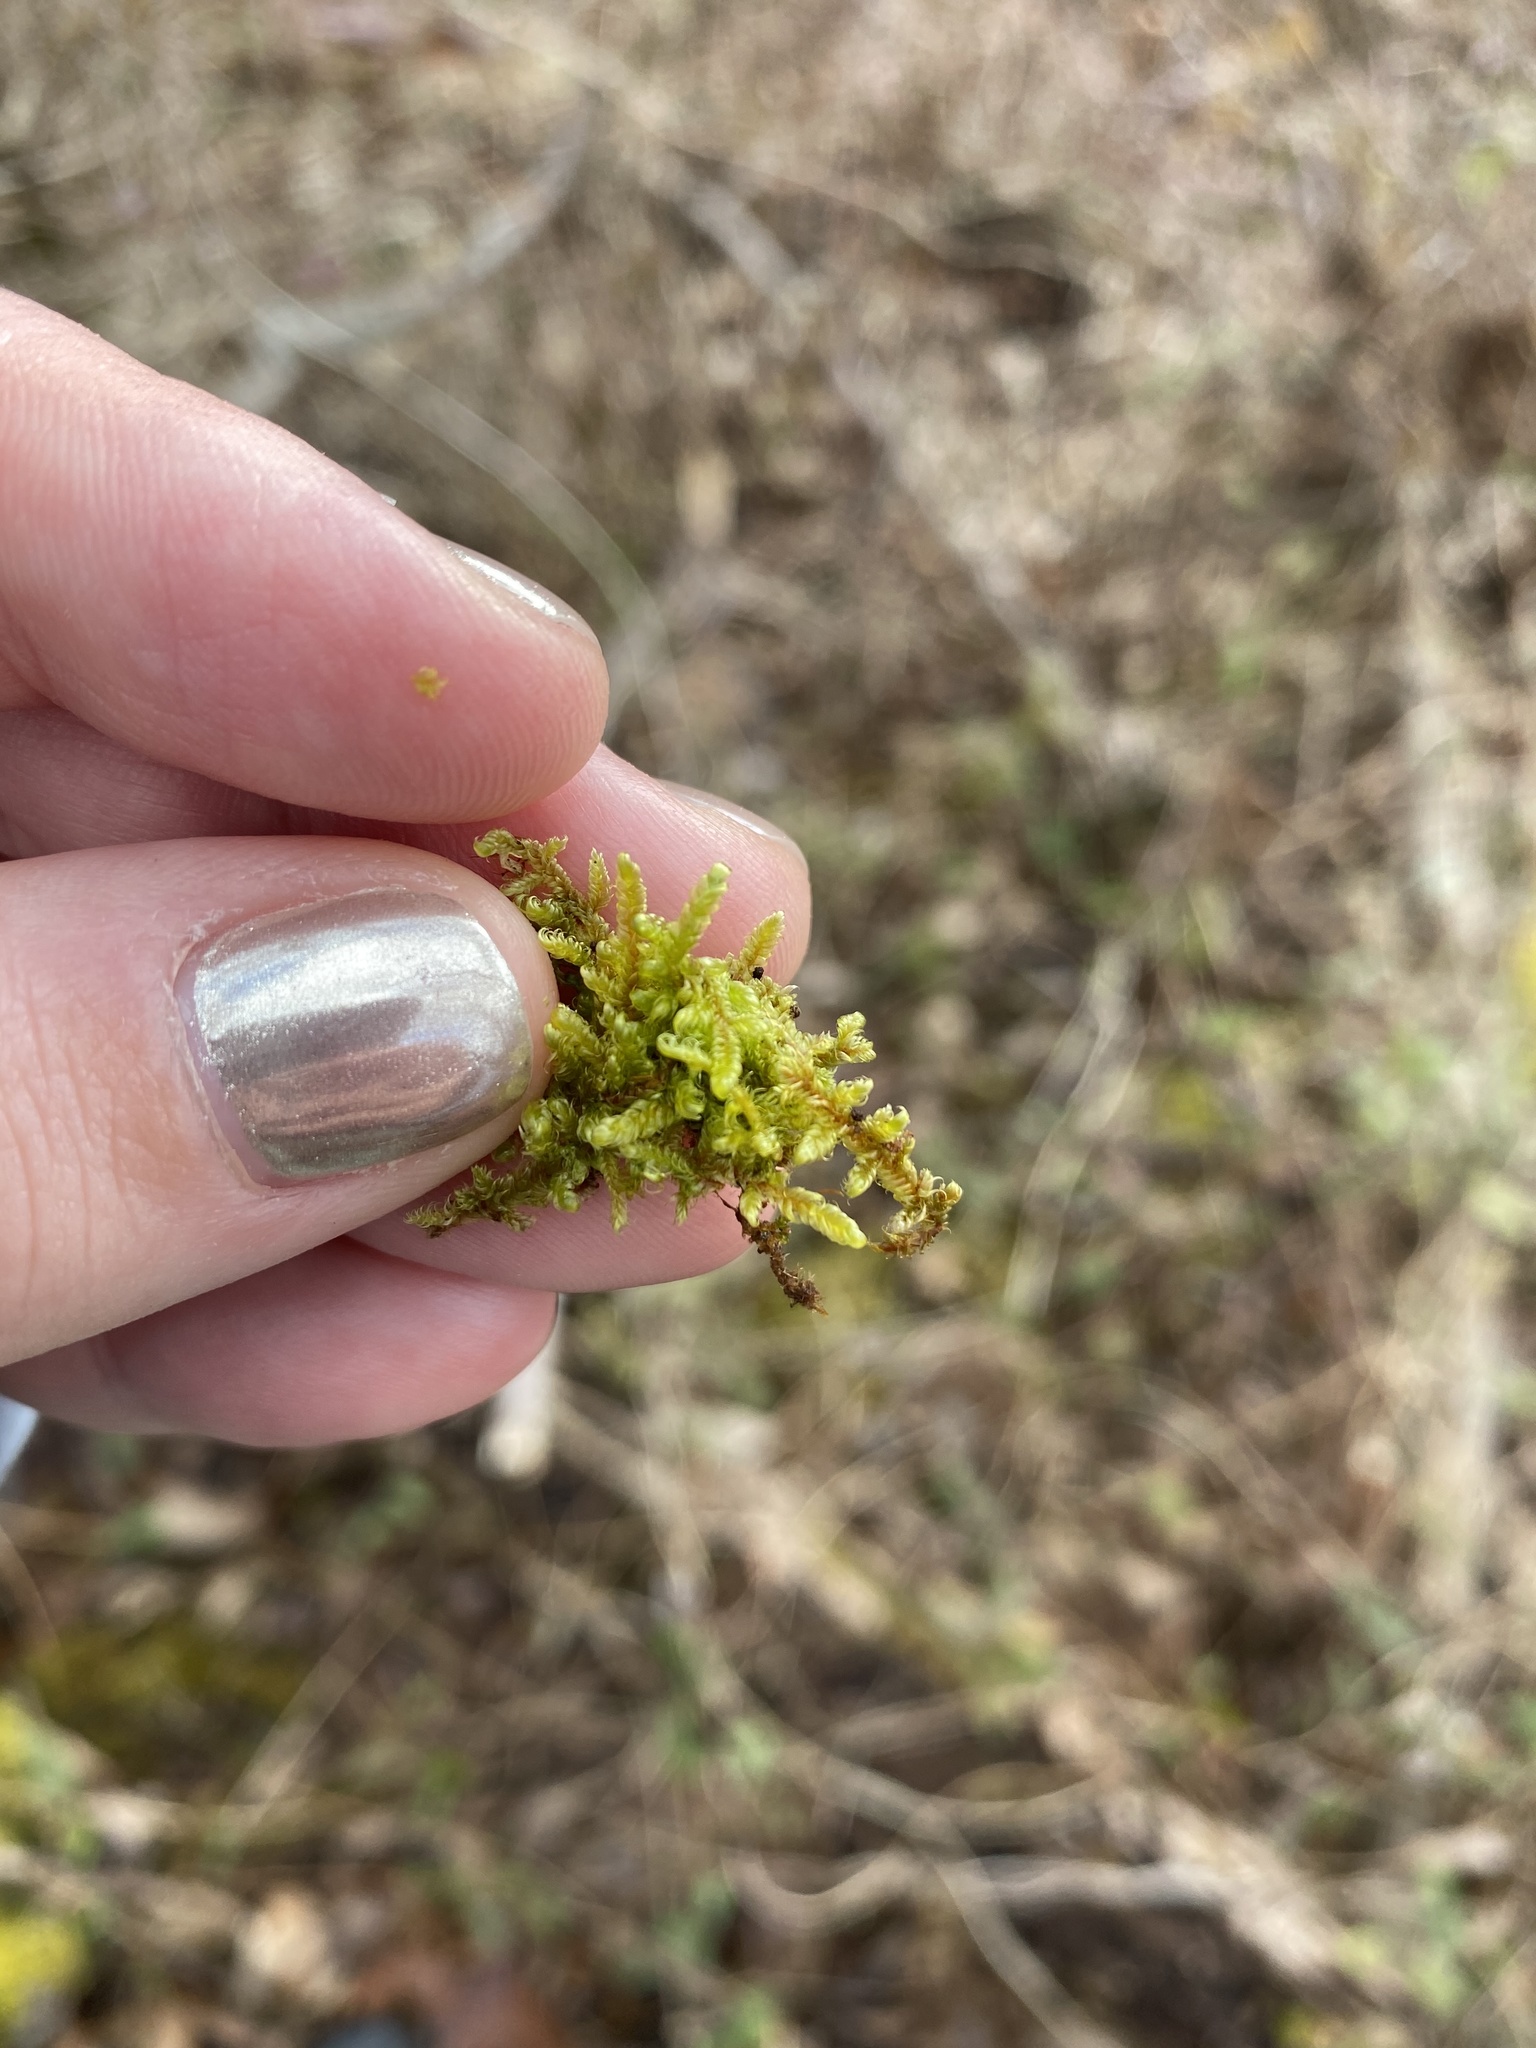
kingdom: Plantae
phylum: Bryophyta
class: Bryopsida
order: Hypnales
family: Callicladiaceae
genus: Callicladium
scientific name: Callicladium imponens
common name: Brocade moss
